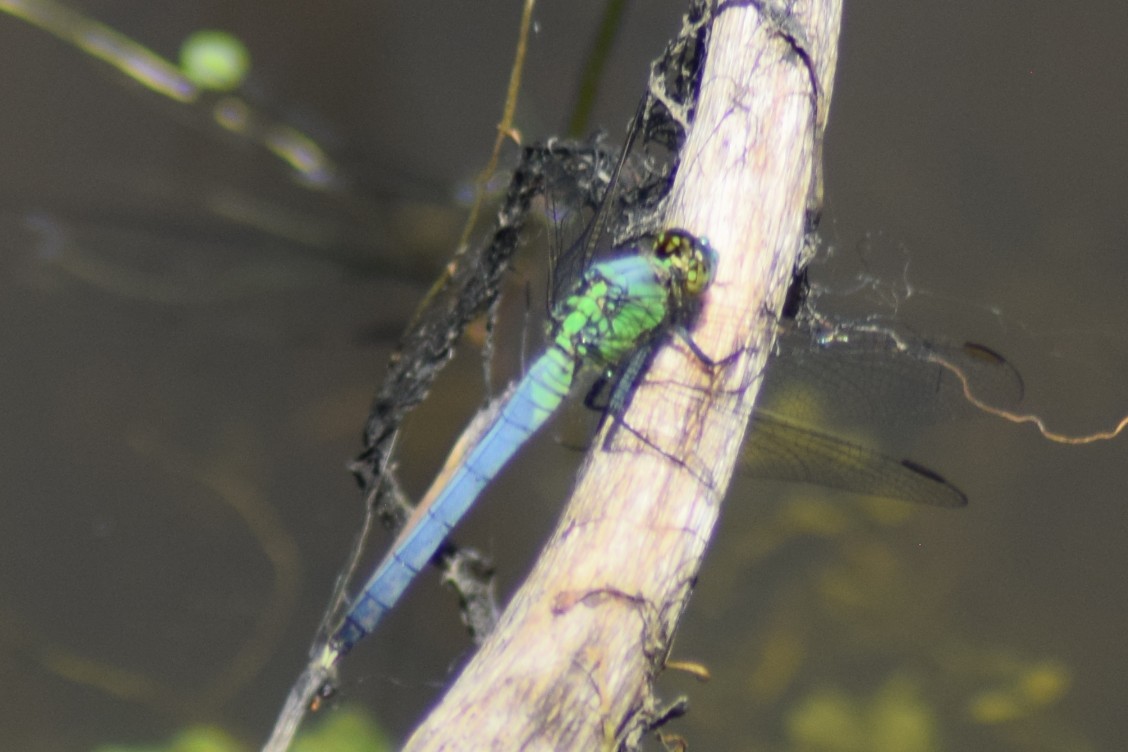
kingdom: Animalia
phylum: Arthropoda
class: Insecta
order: Odonata
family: Libellulidae
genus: Erythemis
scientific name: Erythemis simplicicollis
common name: Eastern pondhawk
